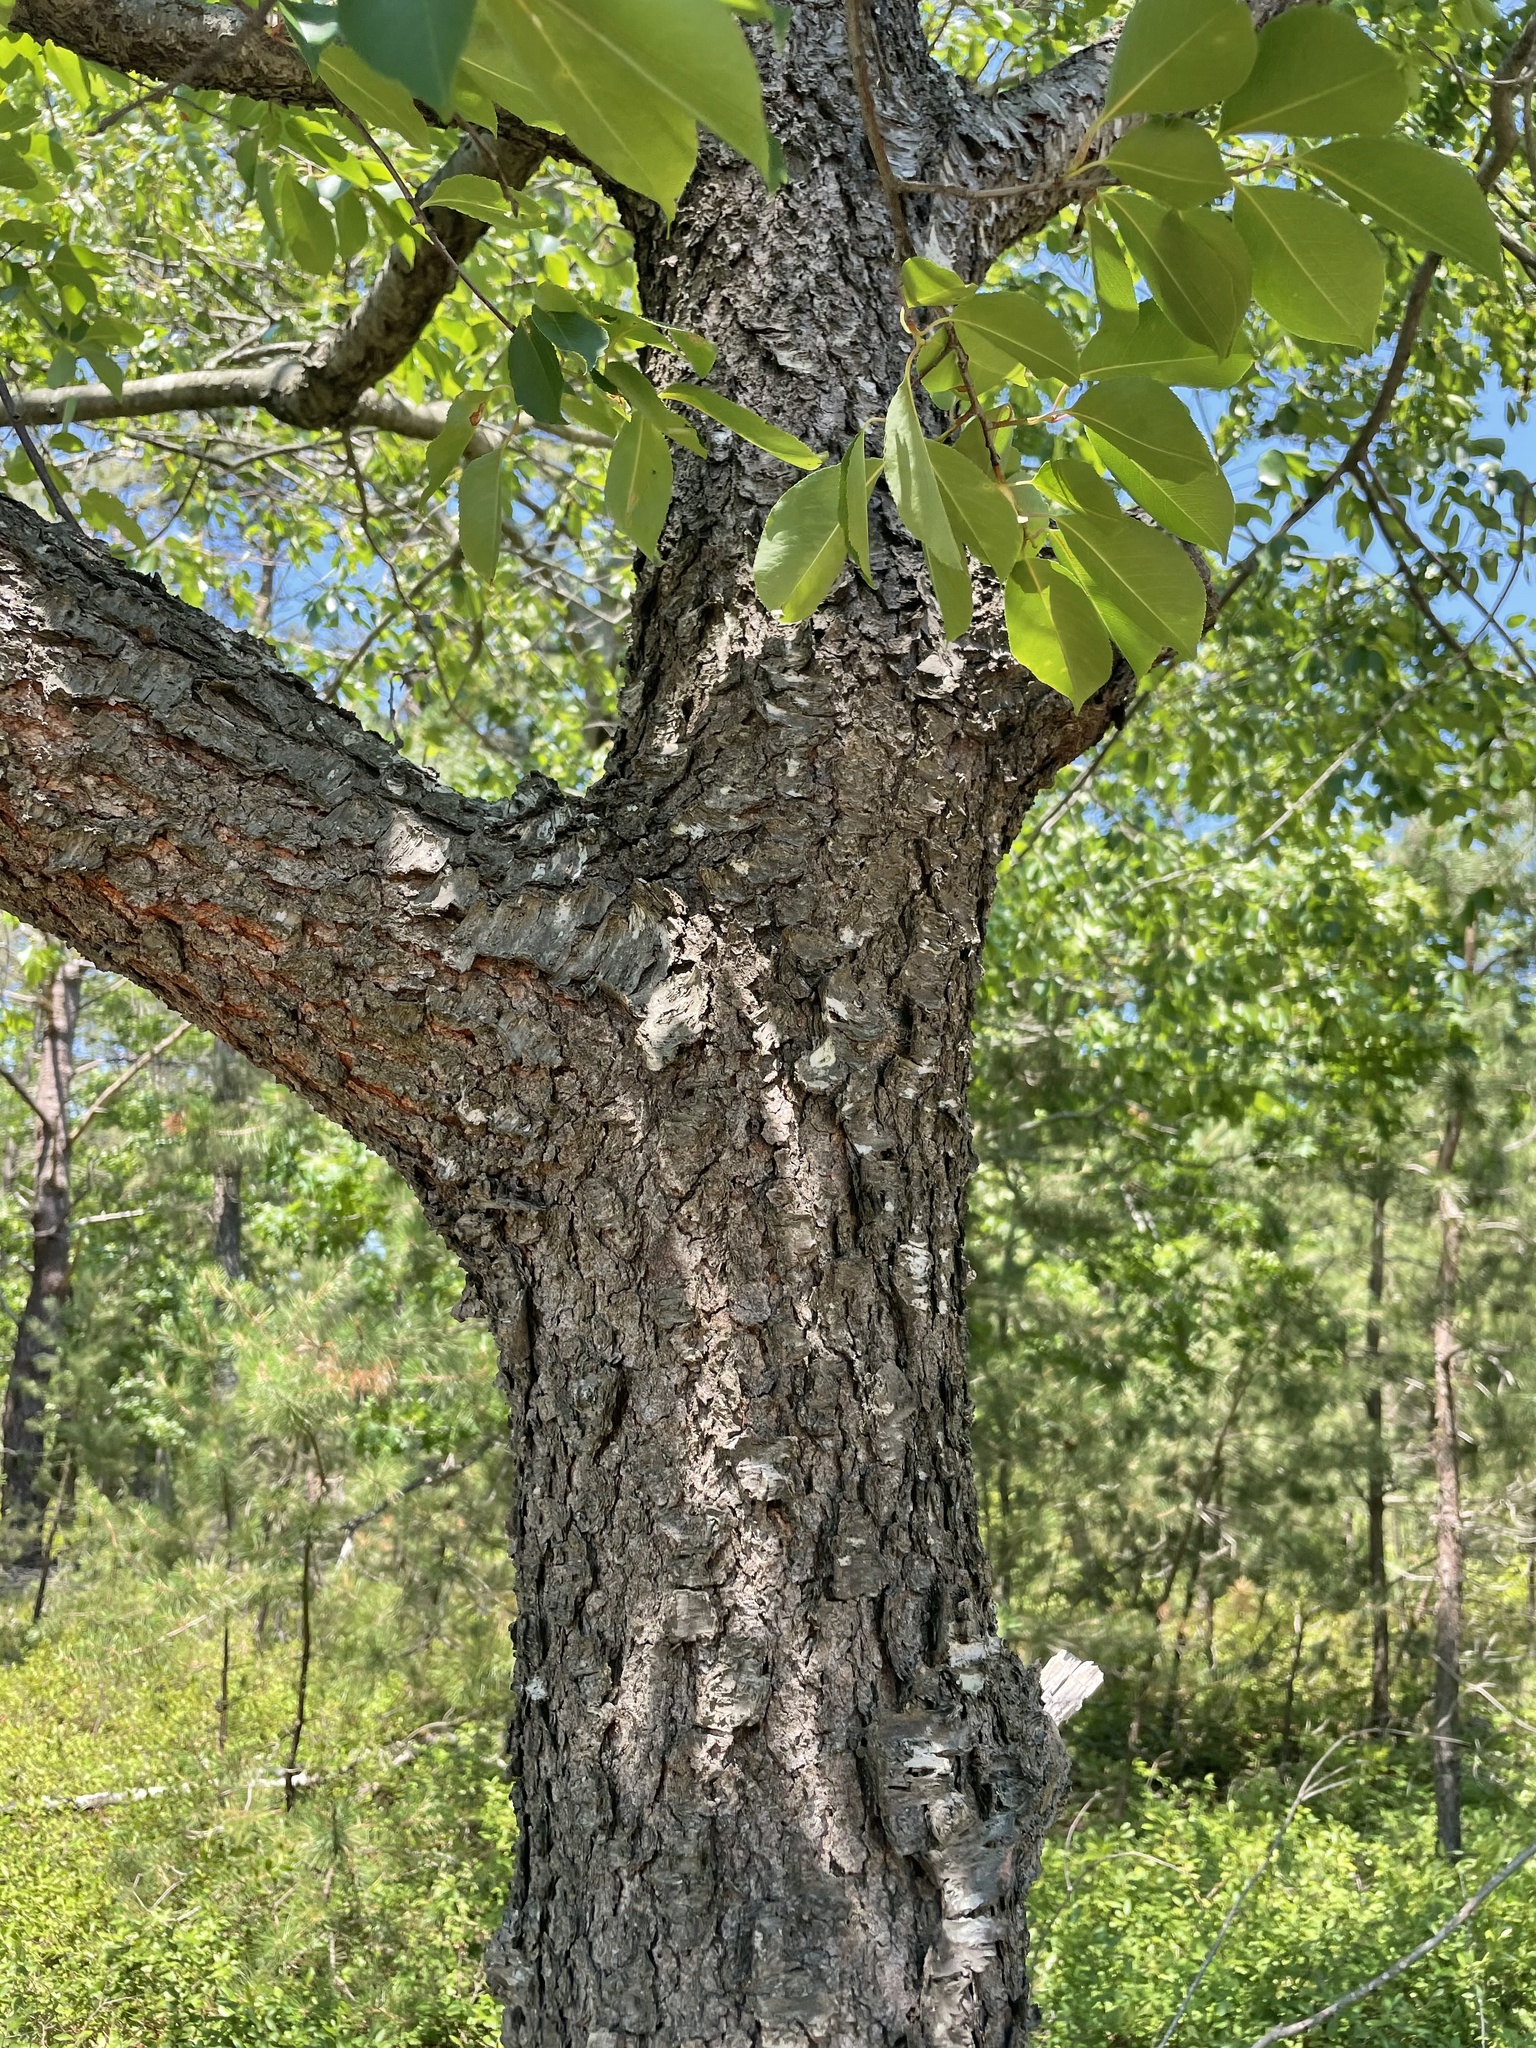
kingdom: Plantae
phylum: Tracheophyta
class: Magnoliopsida
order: Rosales
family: Rosaceae
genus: Prunus
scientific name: Prunus serotina
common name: Black cherry
